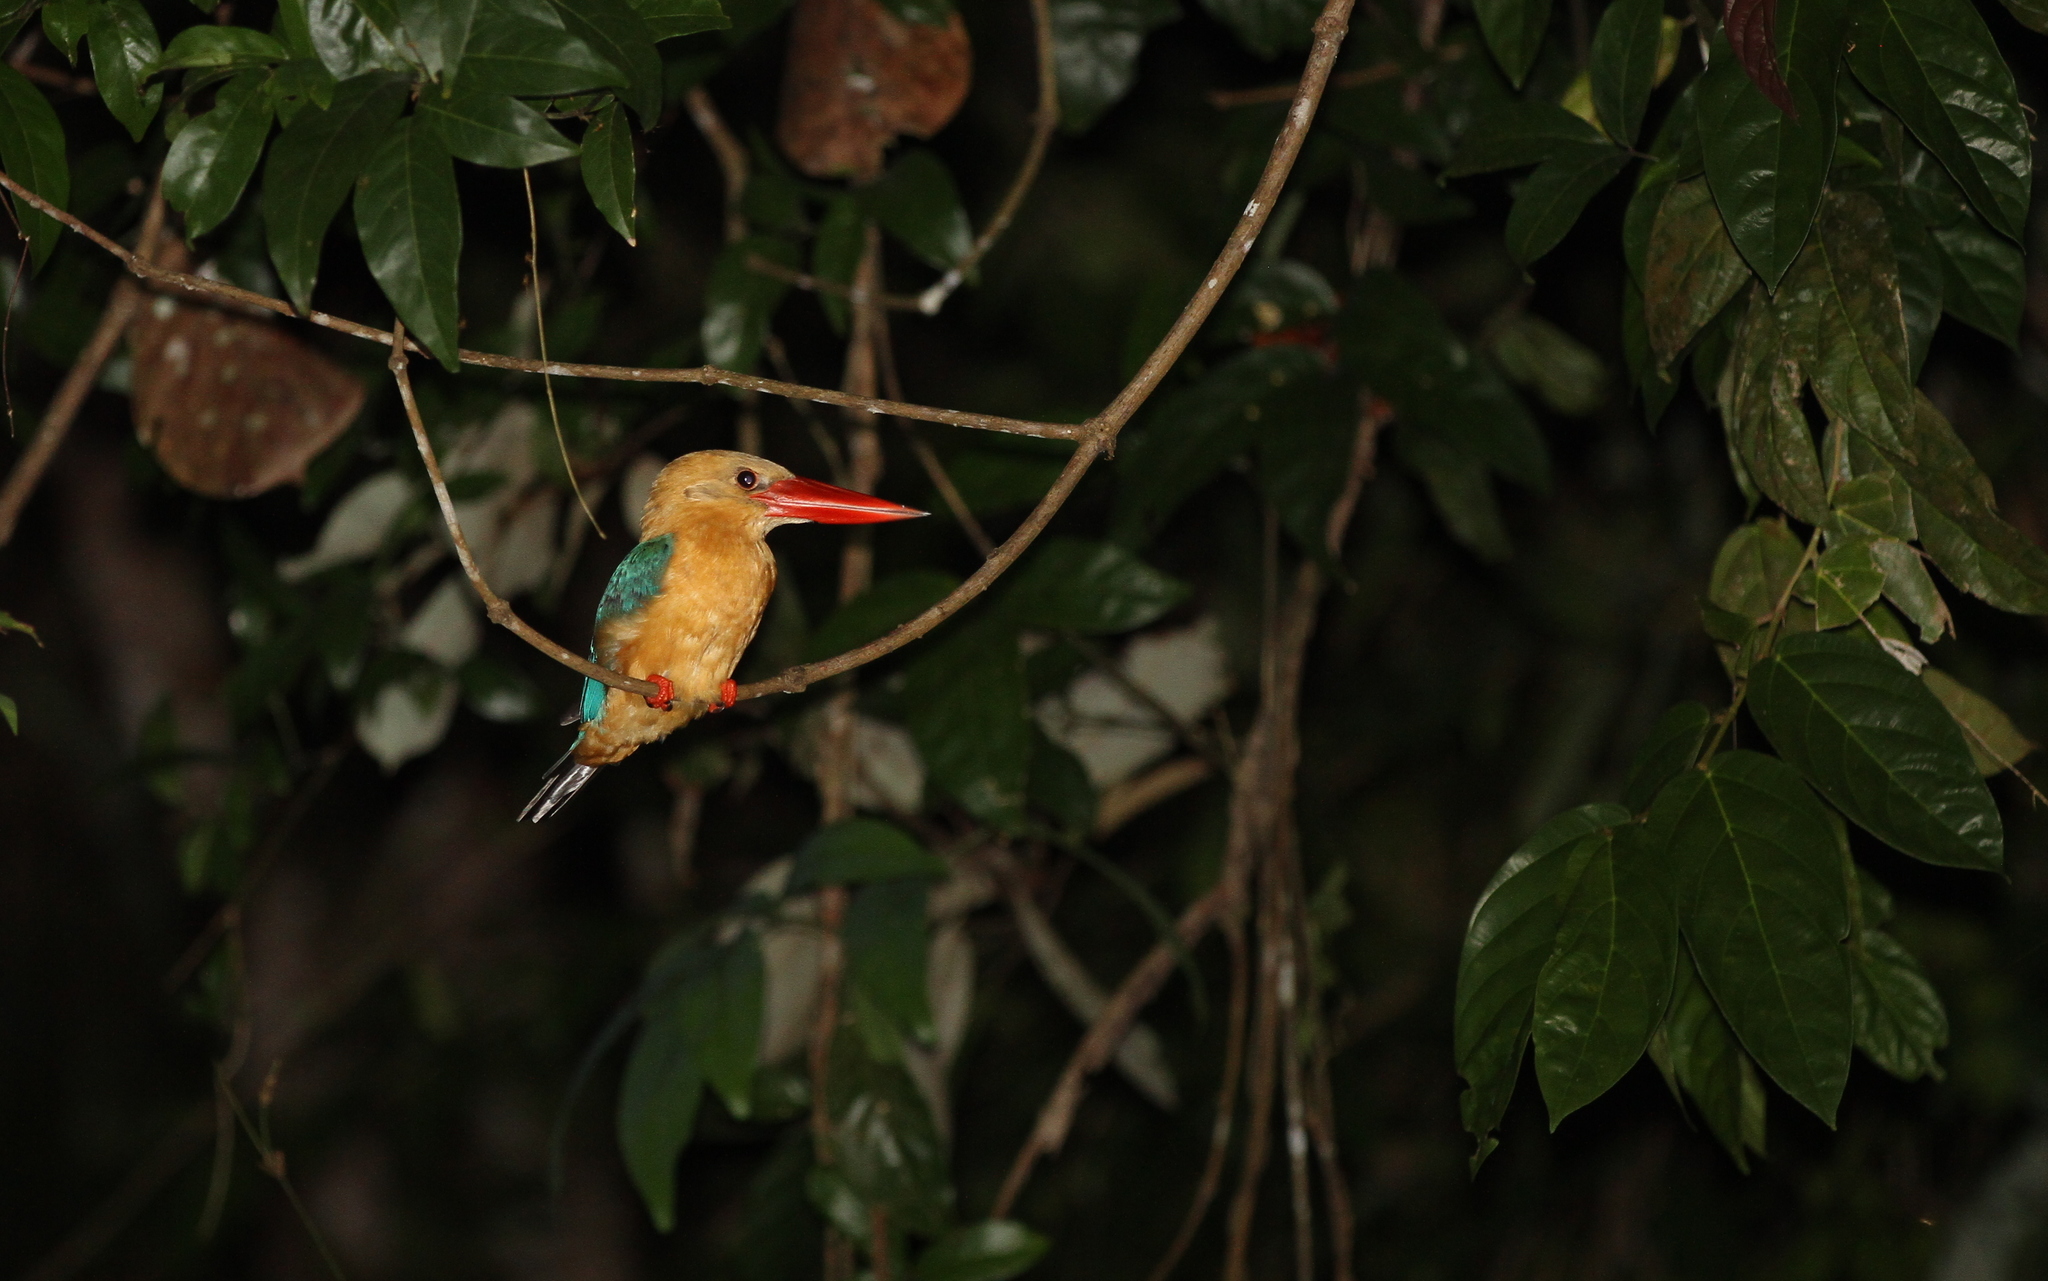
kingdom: Animalia
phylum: Chordata
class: Aves
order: Coraciiformes
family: Alcedinidae
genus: Pelargopsis
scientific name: Pelargopsis capensis
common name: Stork-billed kingfisher
